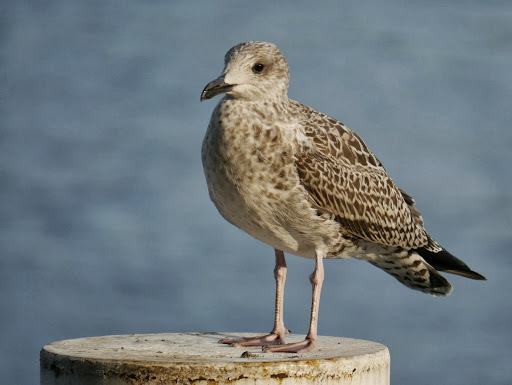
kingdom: Animalia
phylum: Chordata
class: Aves
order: Charadriiformes
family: Laridae
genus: Larus
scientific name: Larus michahellis
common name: Yellow-legged gull
